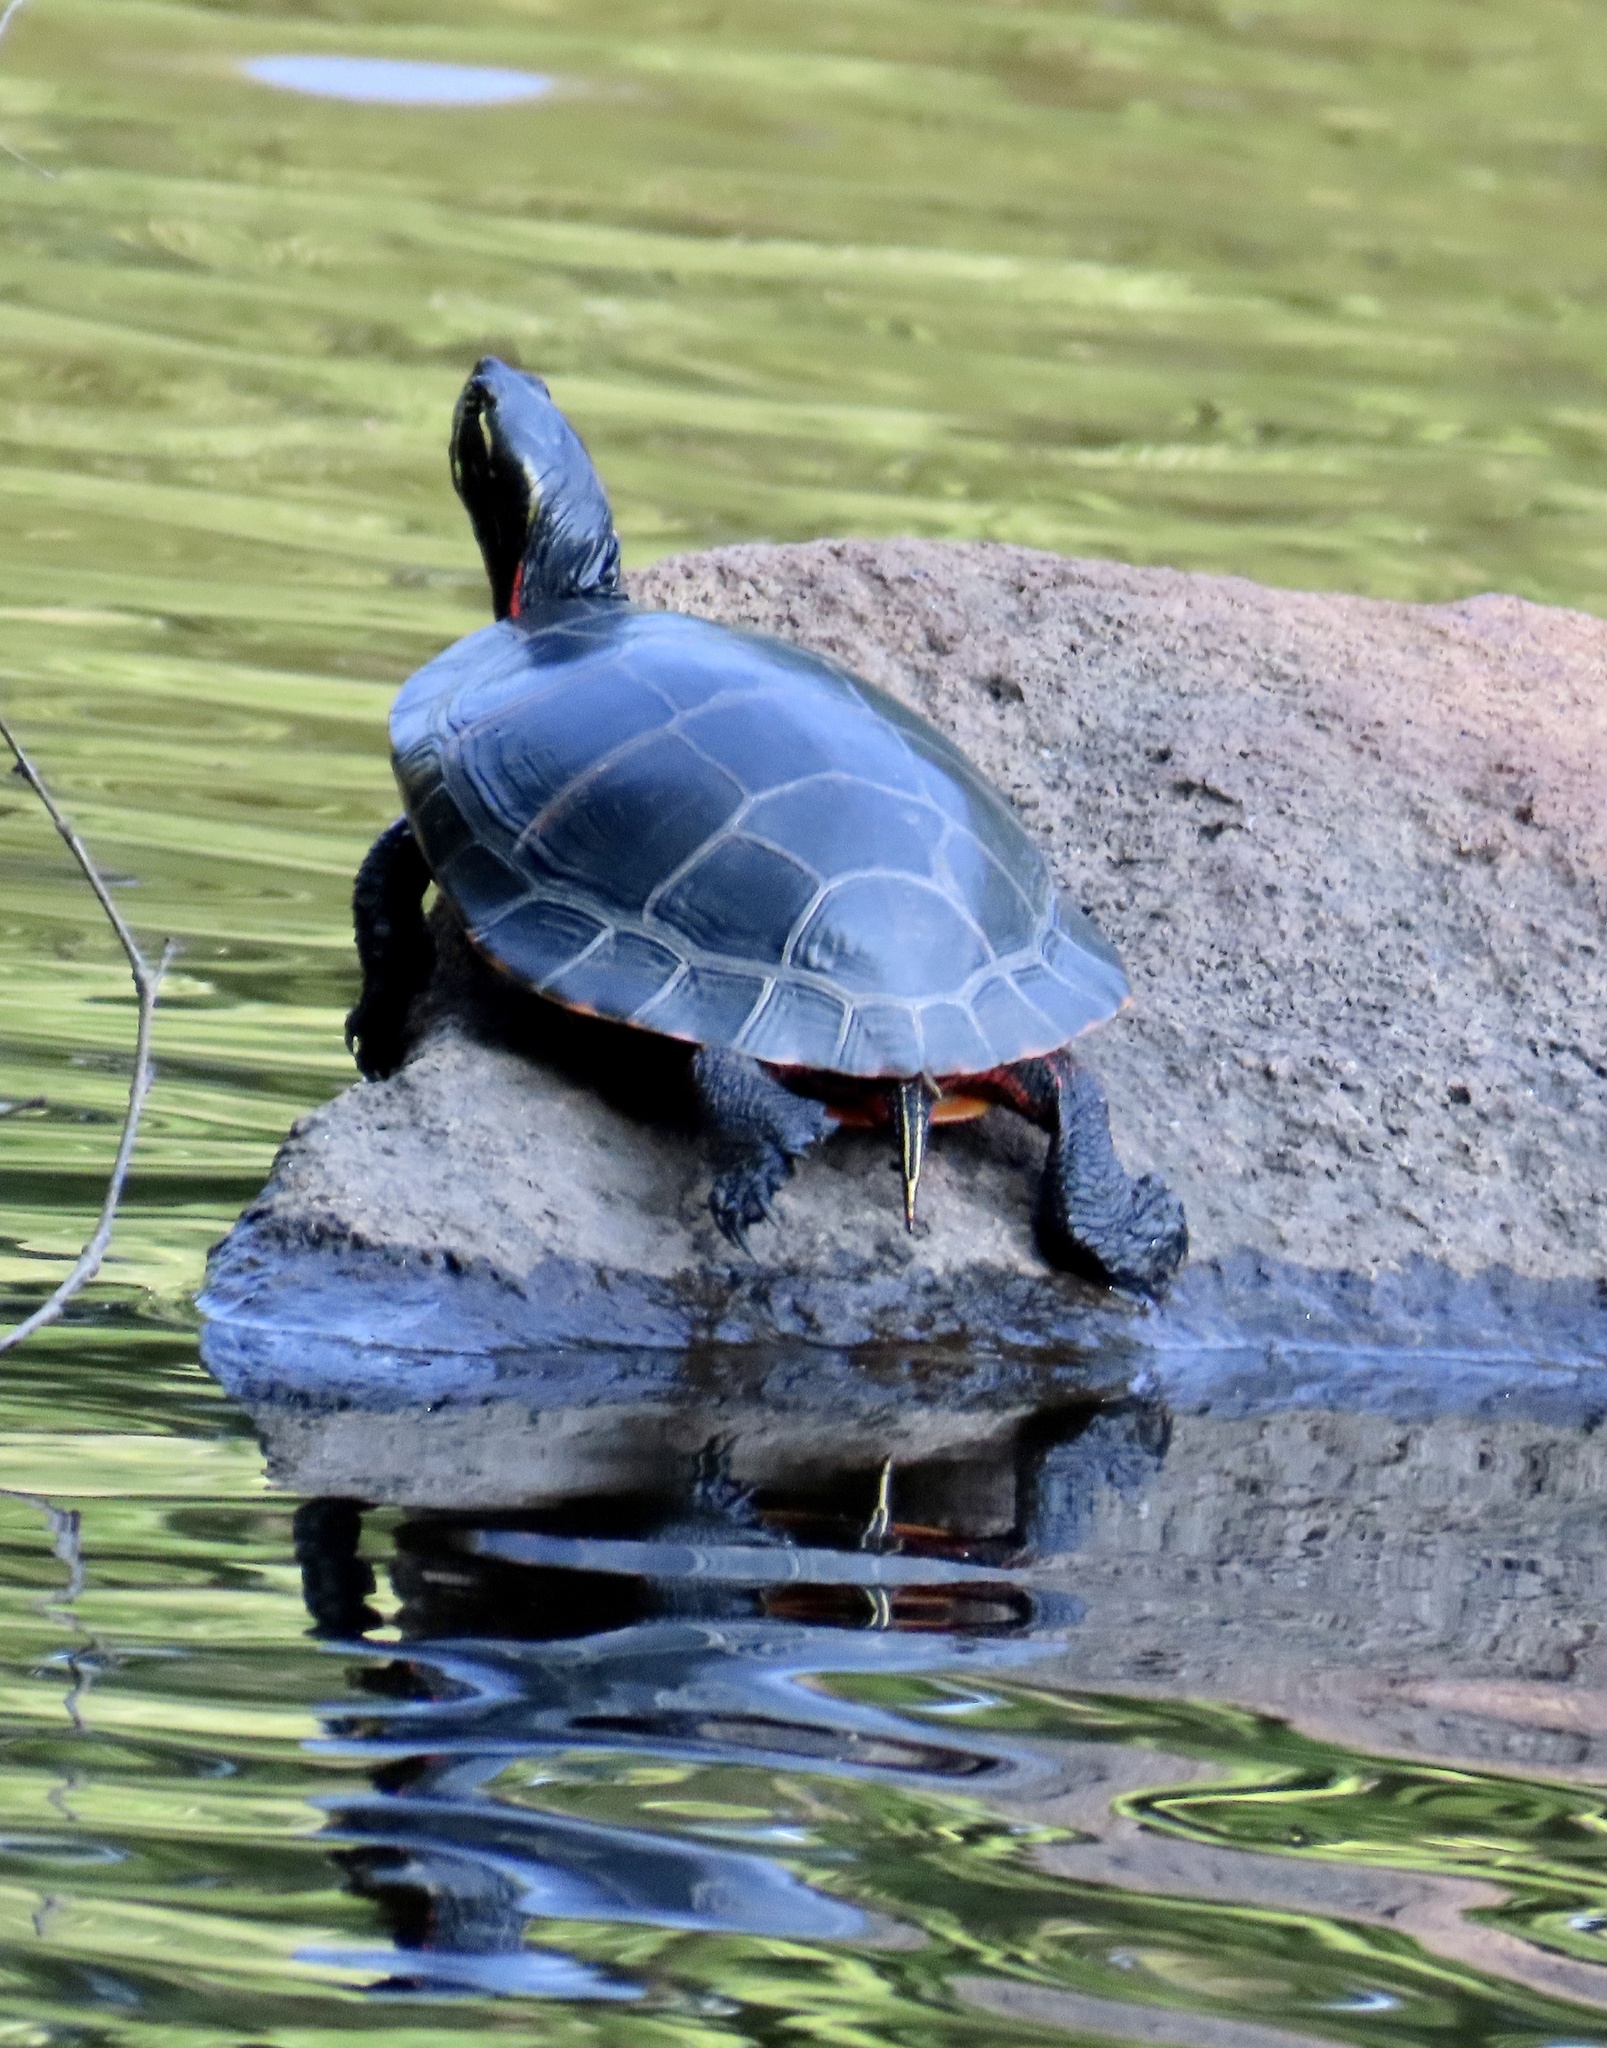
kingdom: Animalia
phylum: Chordata
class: Testudines
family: Emydidae
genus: Chrysemys
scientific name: Chrysemys picta
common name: Painted turtle
